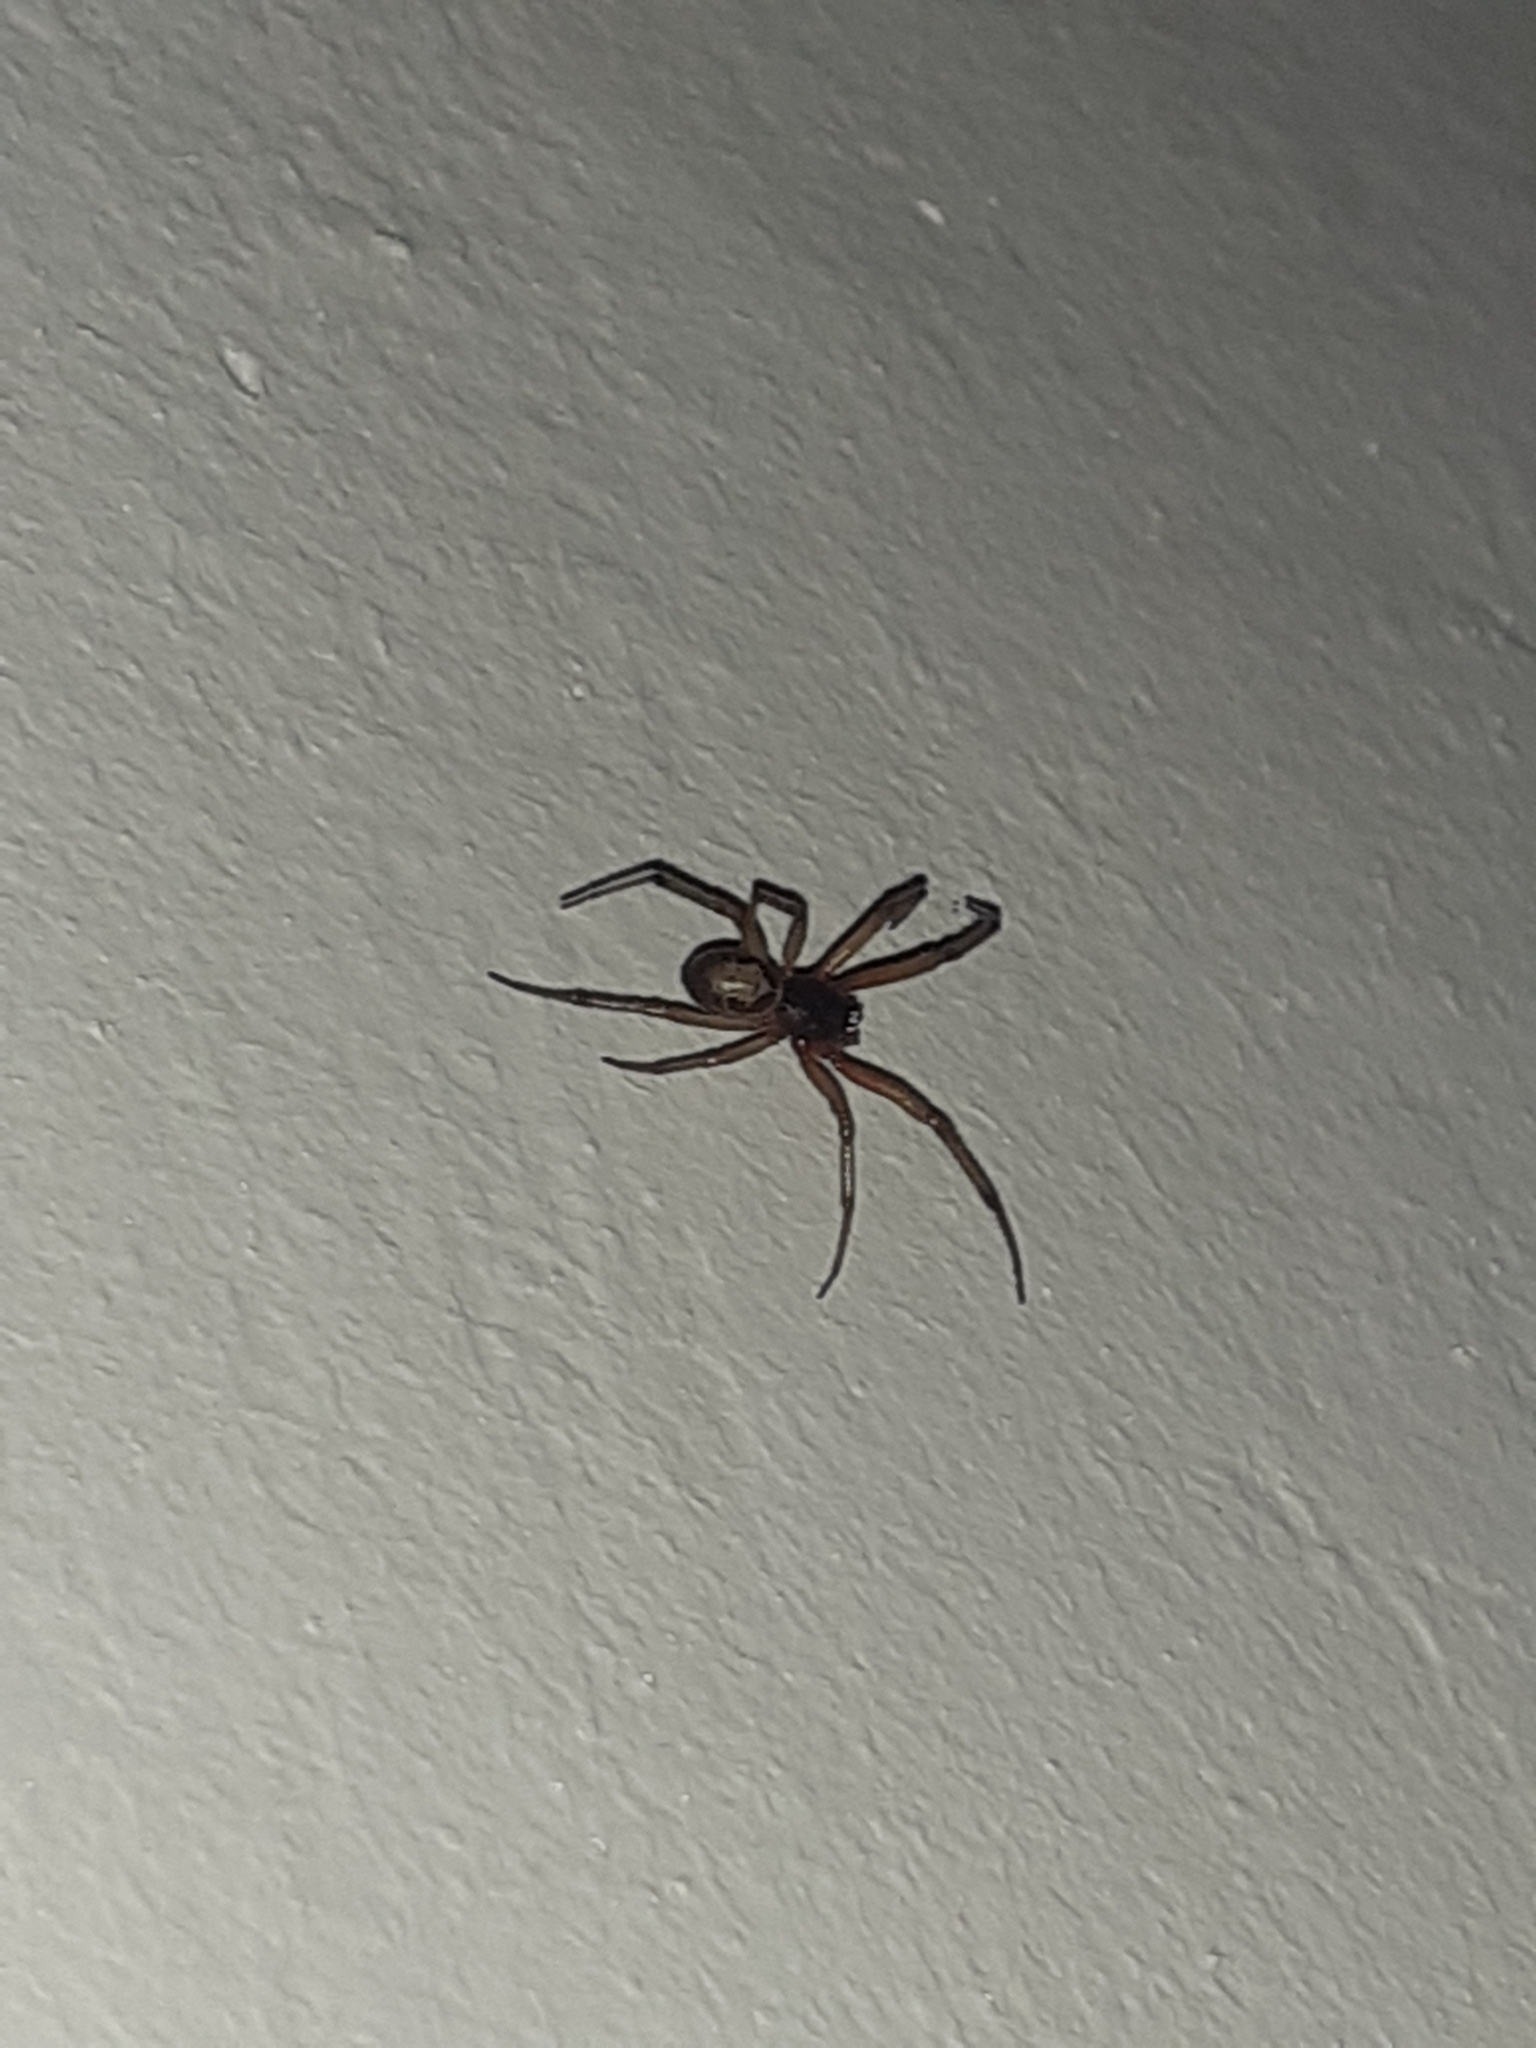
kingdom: Animalia
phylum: Arthropoda
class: Arachnida
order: Araneae
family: Theridiidae
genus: Steatoda
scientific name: Steatoda nobilis
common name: Cobweb weaver
